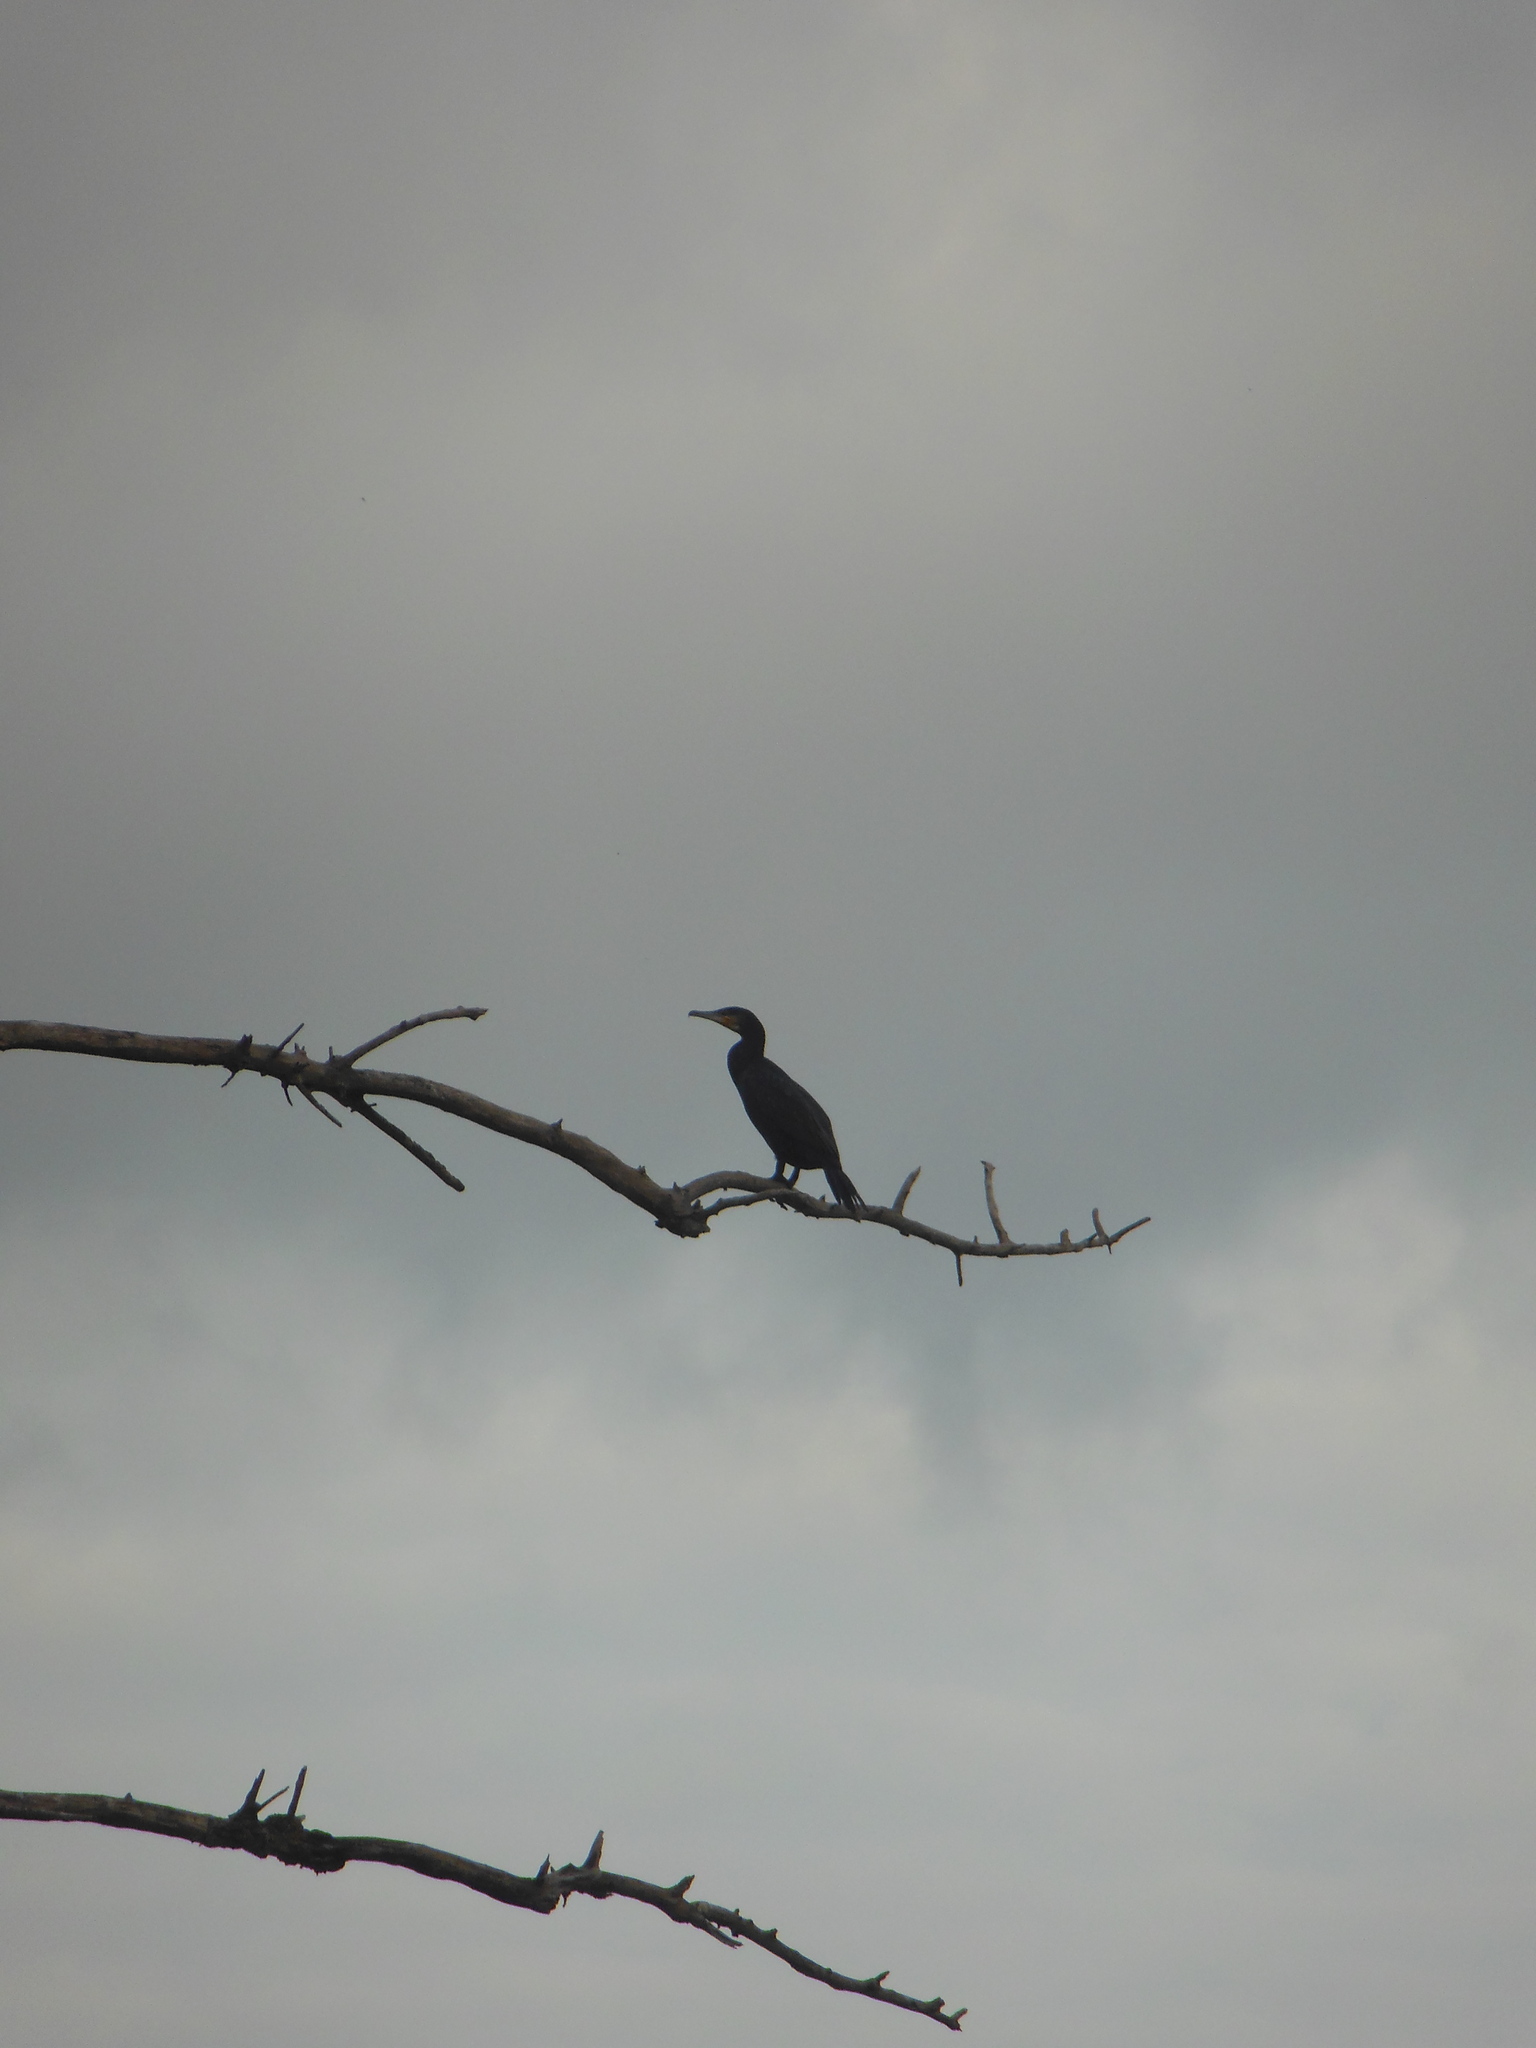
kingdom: Animalia
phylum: Chordata
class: Aves
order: Suliformes
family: Phalacrocoracidae
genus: Phalacrocorax
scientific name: Phalacrocorax carbo
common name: Great cormorant
